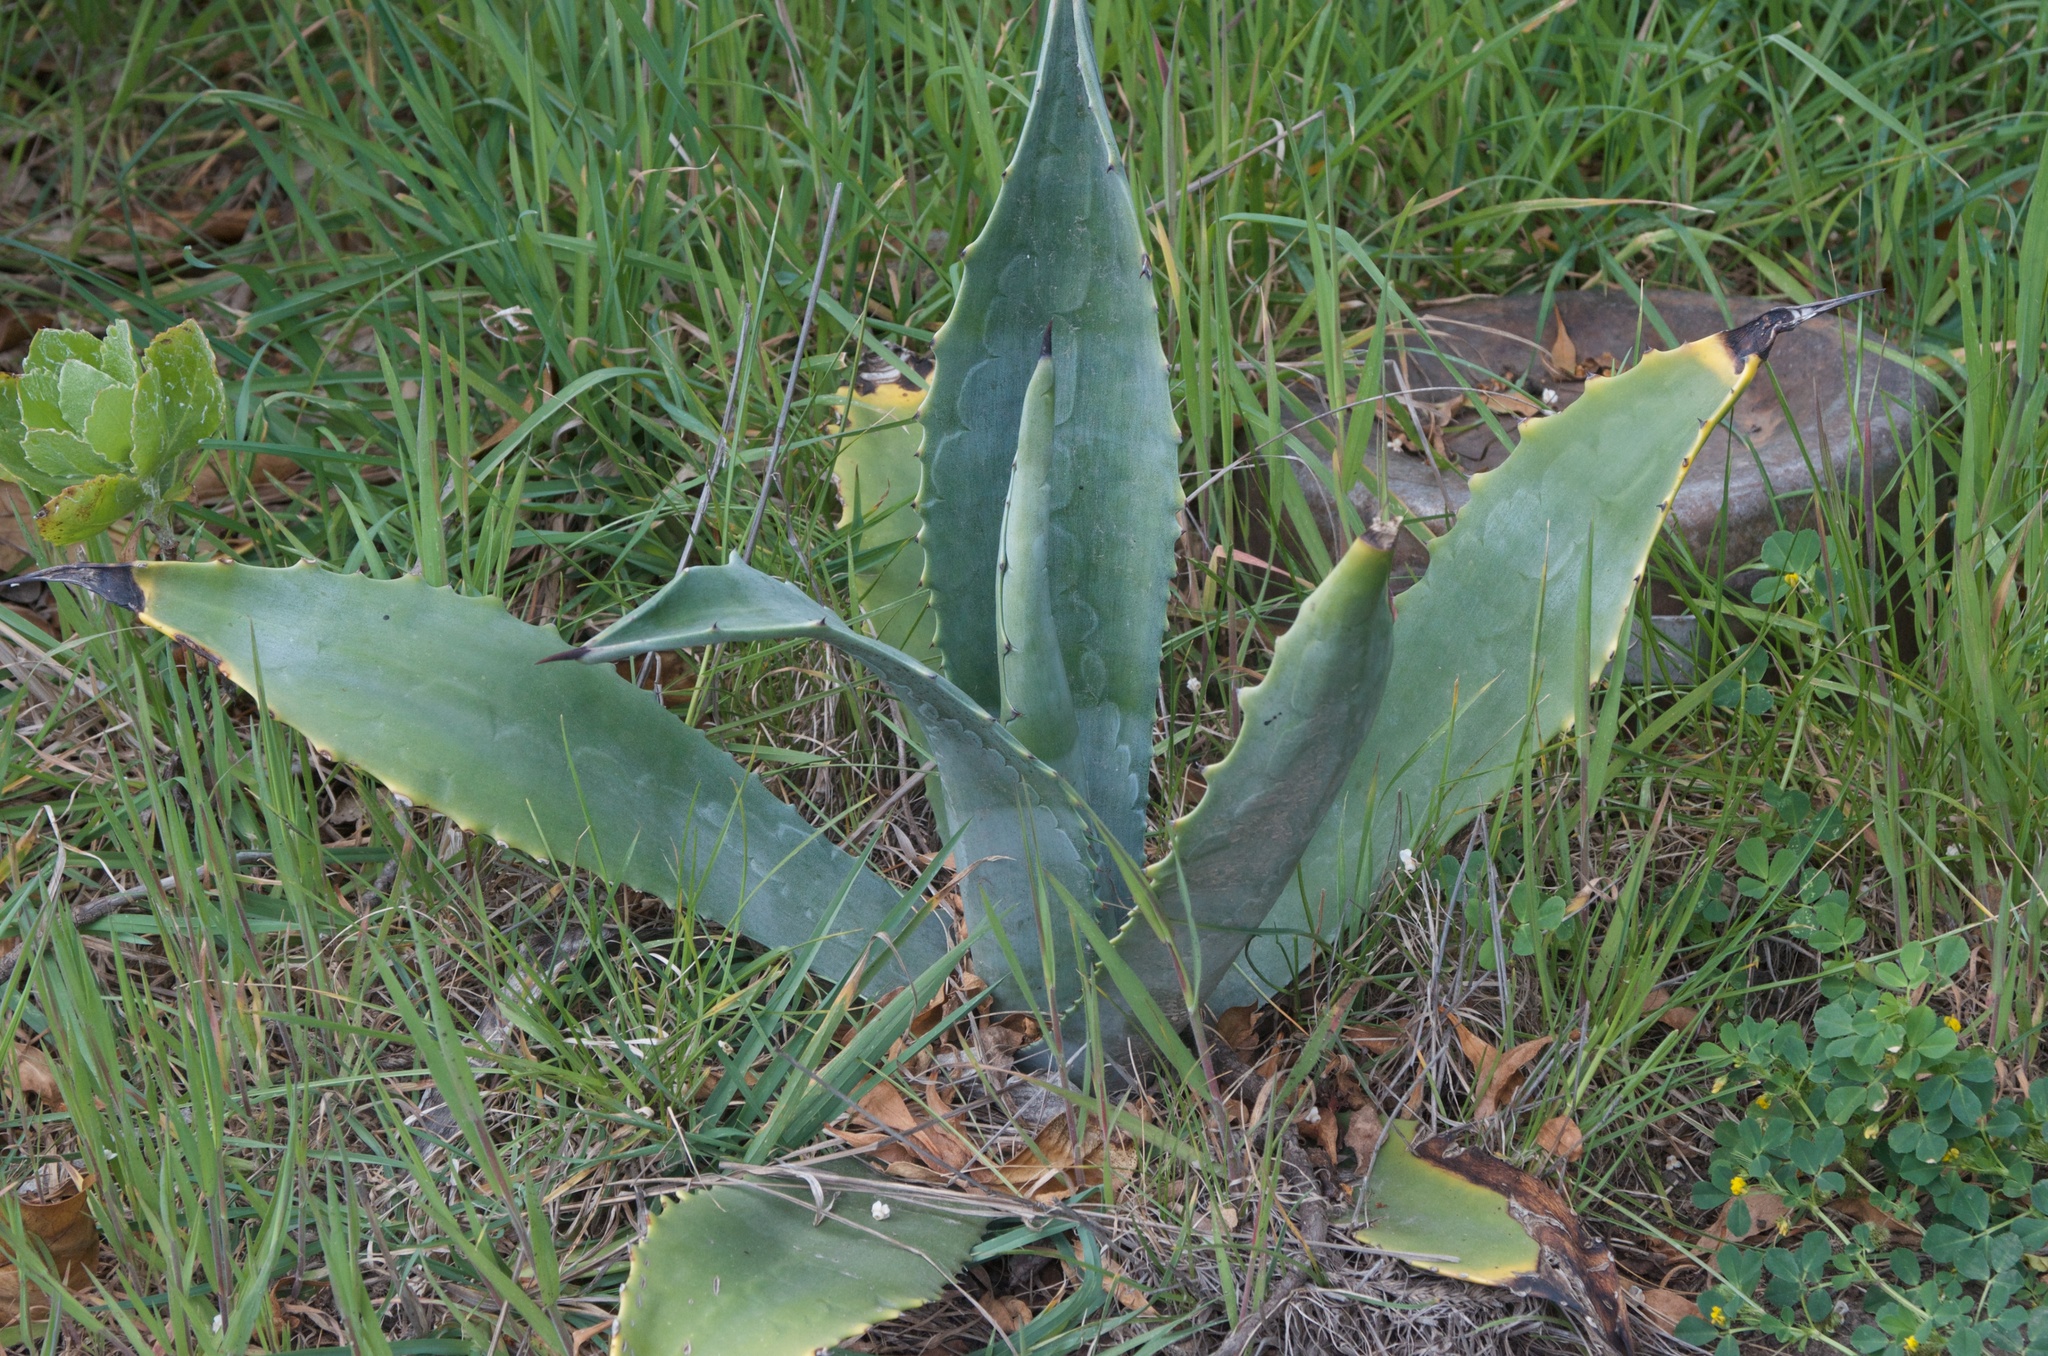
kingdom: Plantae
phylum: Tracheophyta
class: Liliopsida
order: Asparagales
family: Asparagaceae
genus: Agave
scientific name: Agave americana
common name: Centuryplant
